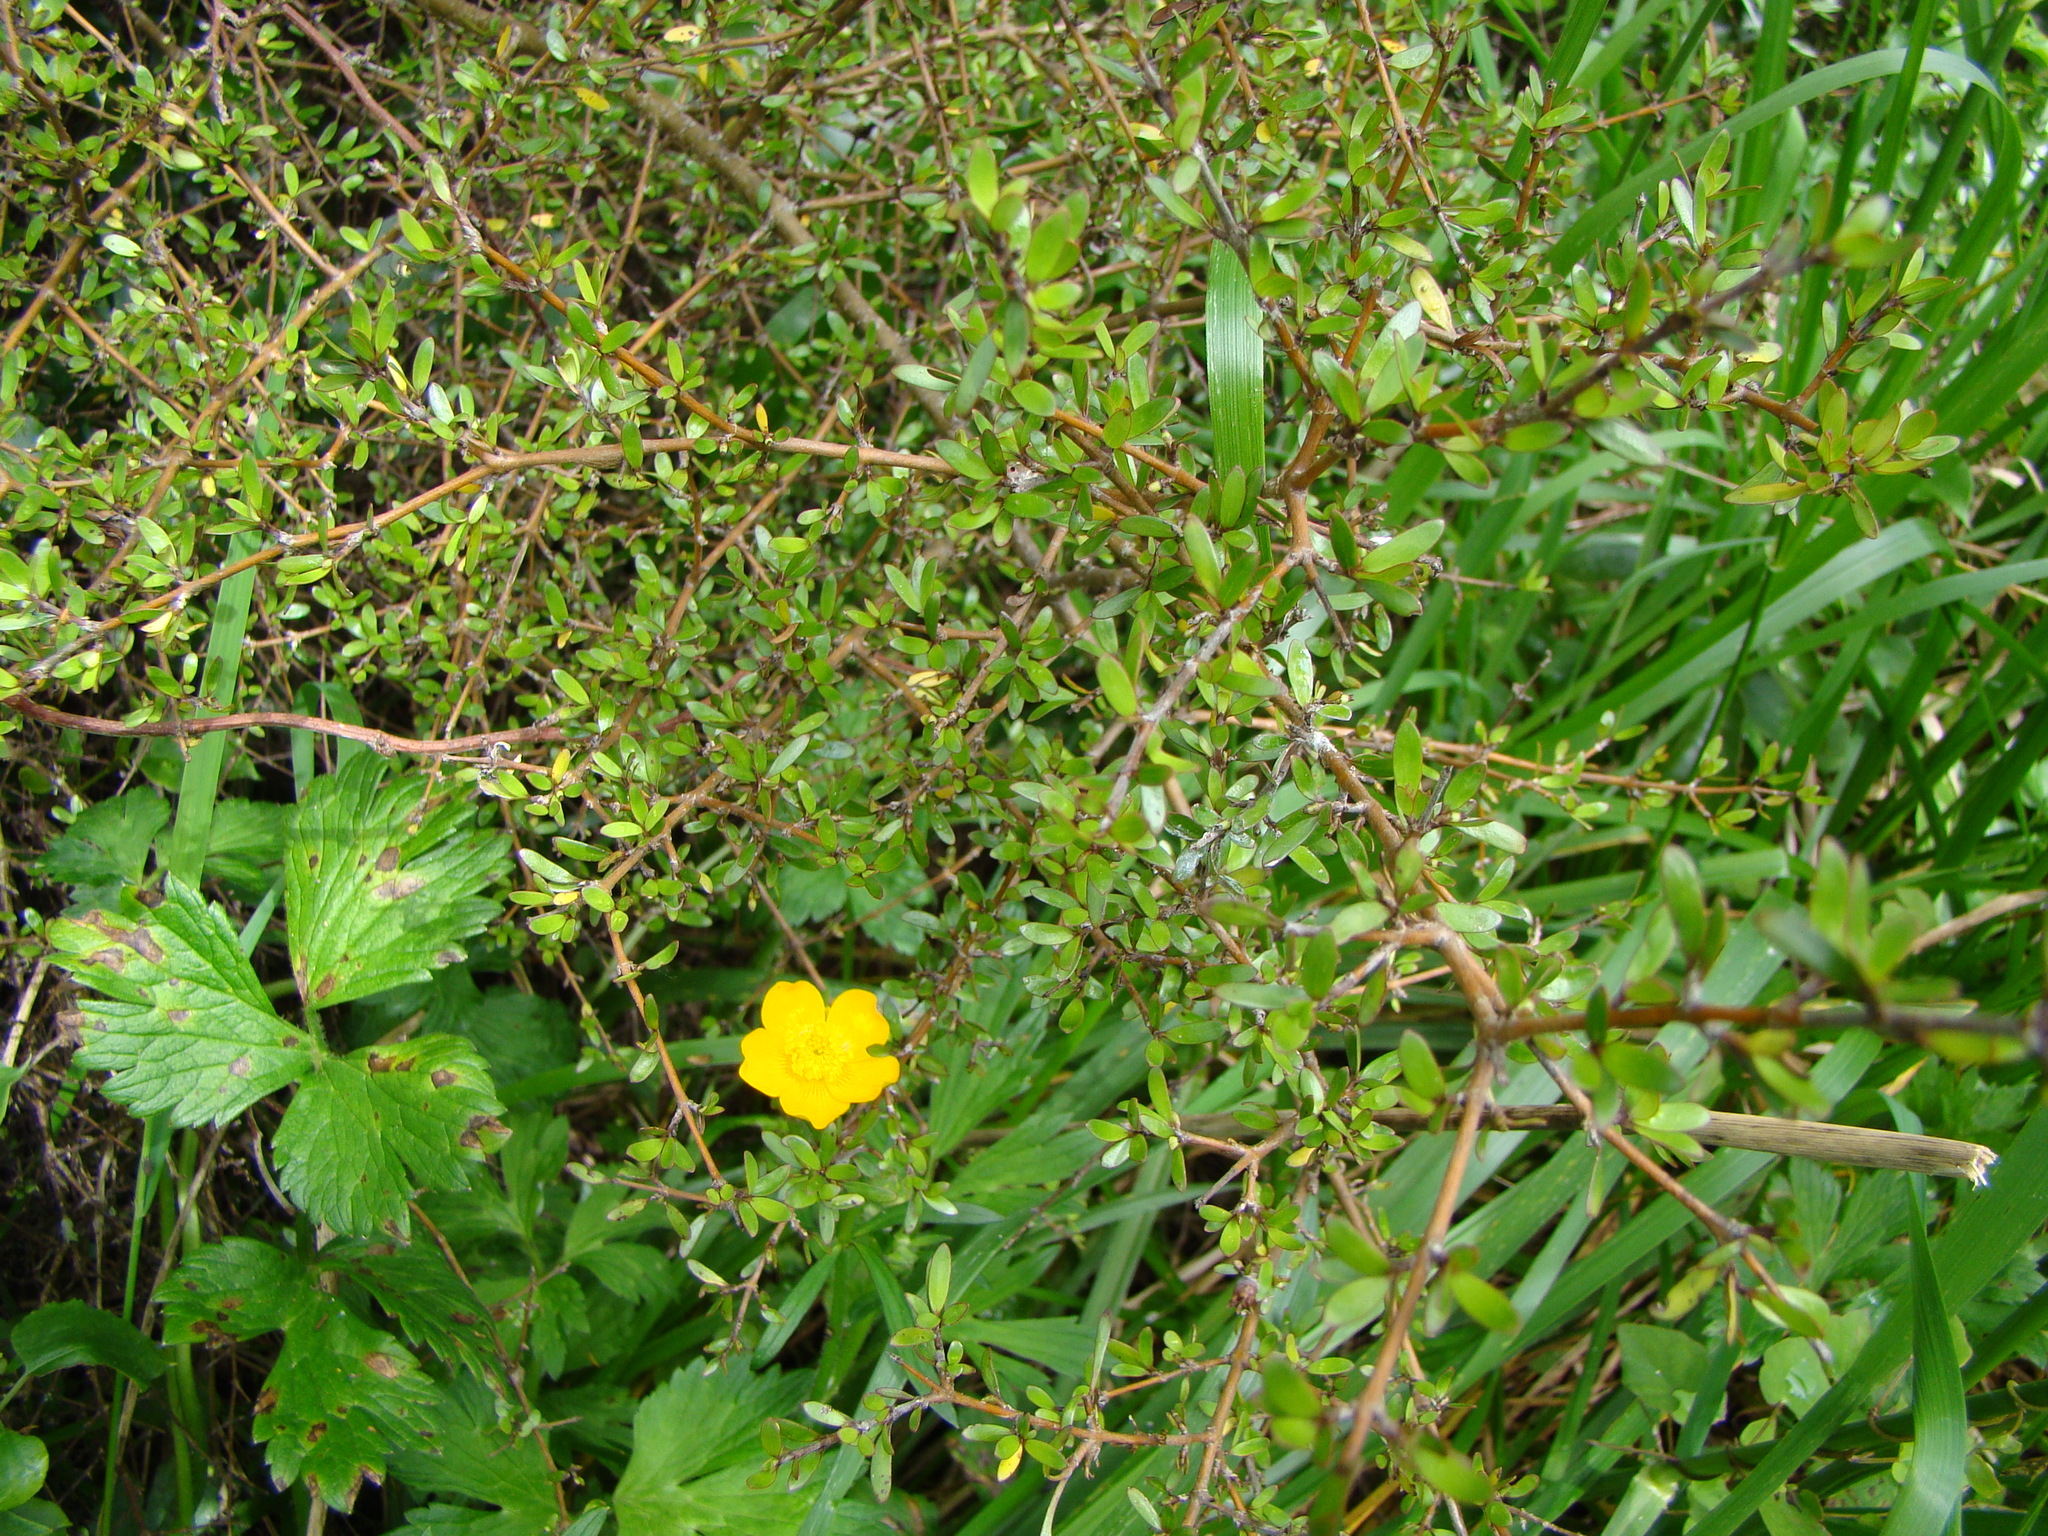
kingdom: Plantae
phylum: Tracheophyta
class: Magnoliopsida
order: Gentianales
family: Rubiaceae
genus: Coprosma
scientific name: Coprosma propinqua
